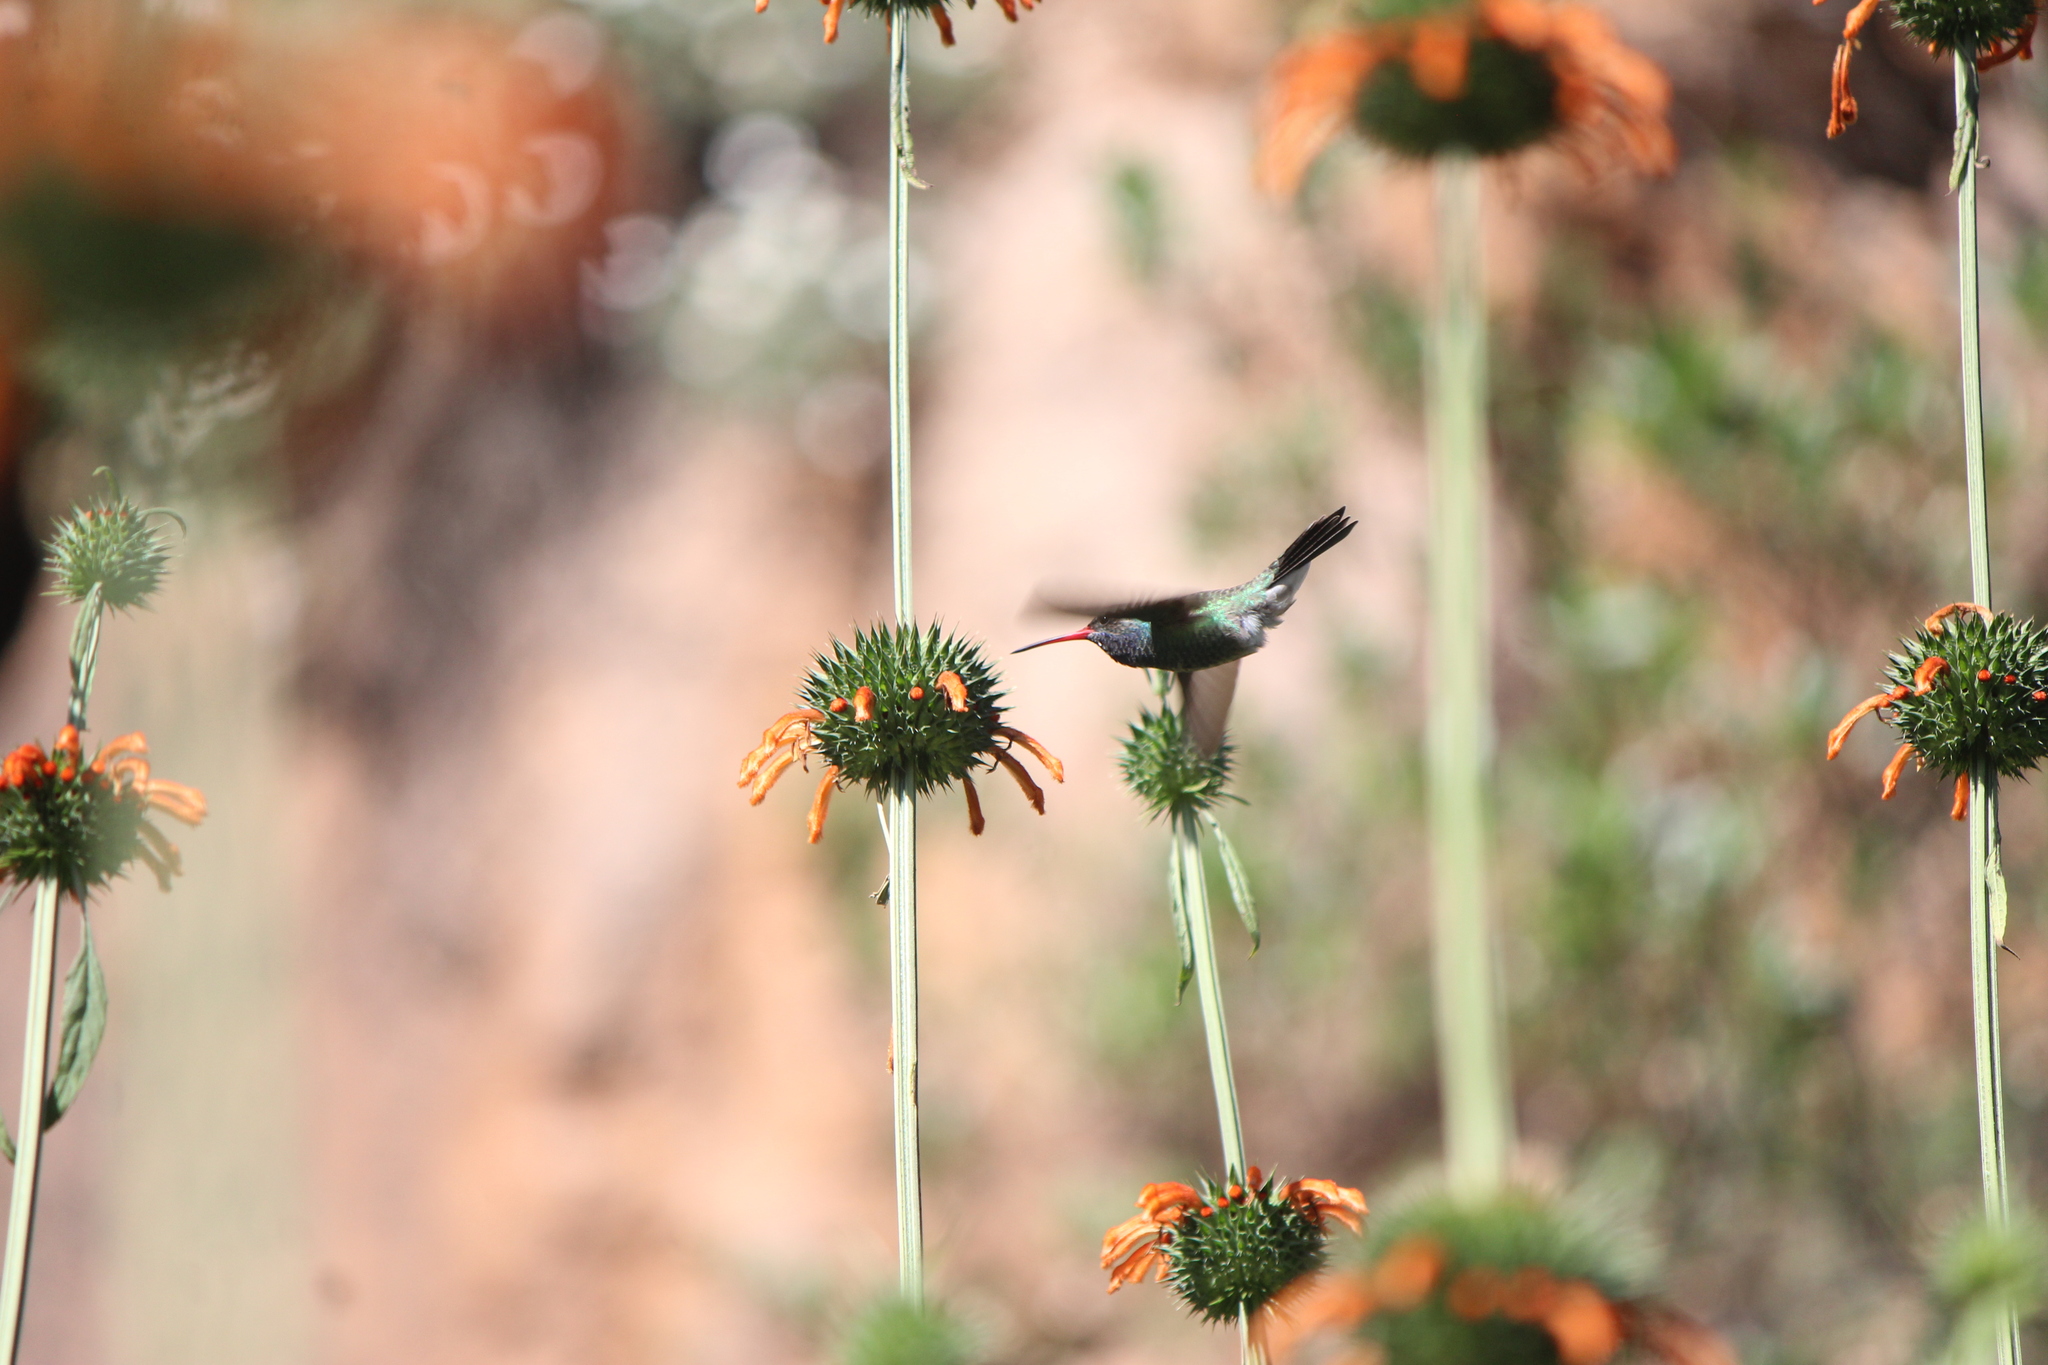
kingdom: Animalia
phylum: Chordata
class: Aves
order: Apodiformes
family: Trochilidae
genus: Cynanthus
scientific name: Cynanthus latirostris
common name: Broad-billed hummingbird
